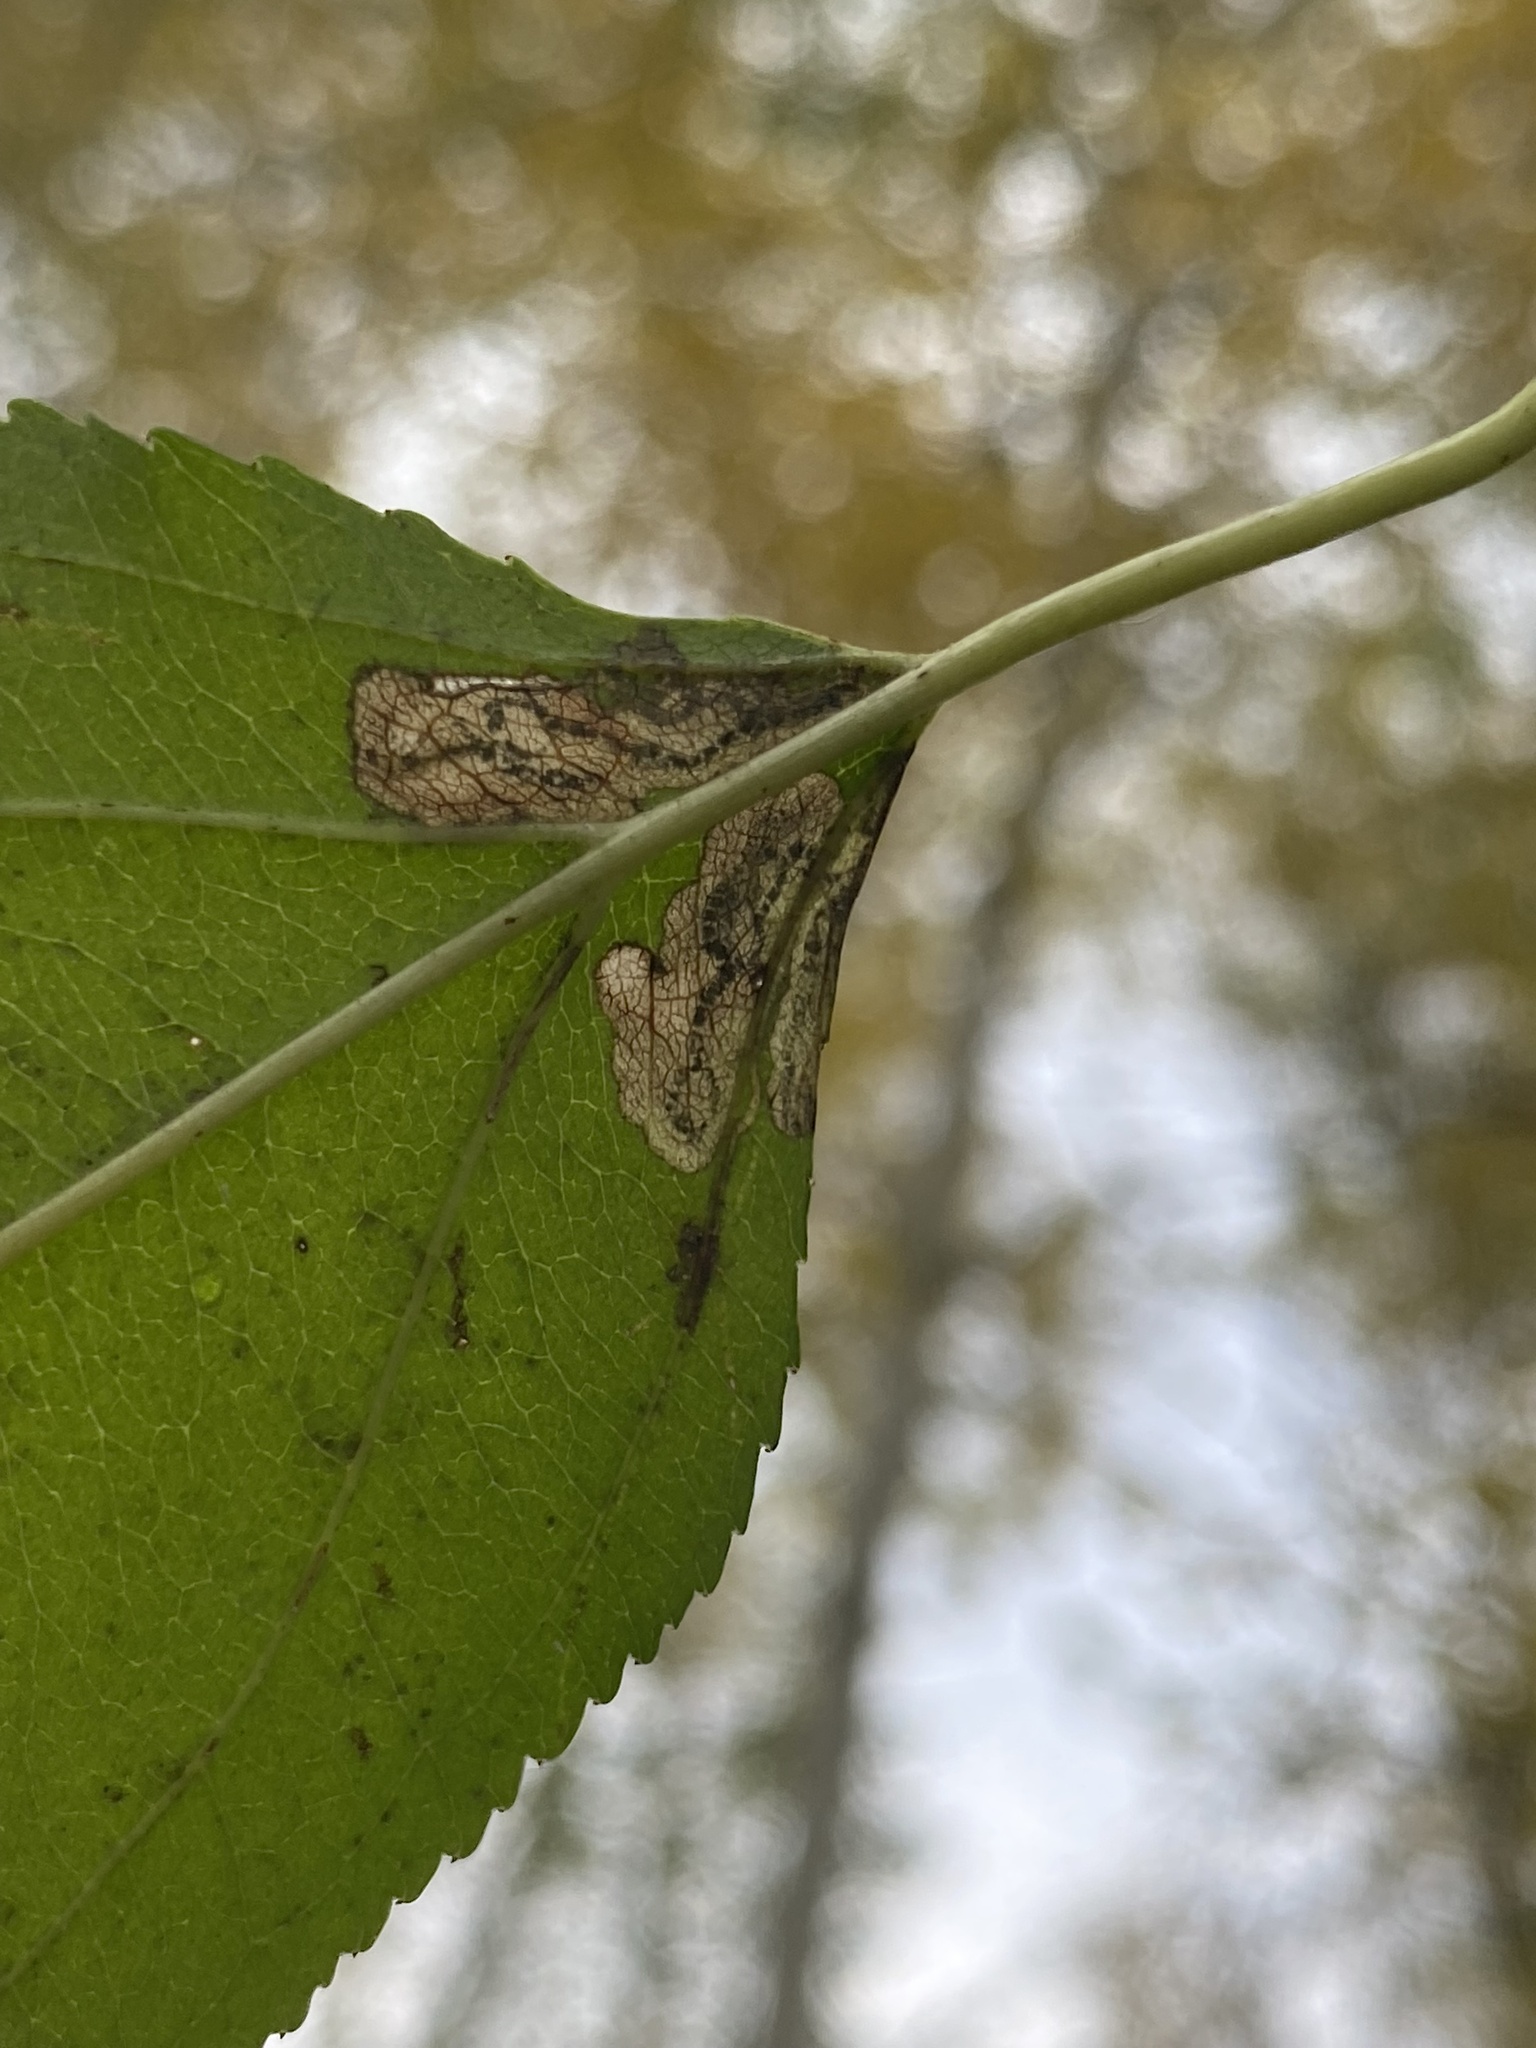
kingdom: Animalia
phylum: Arthropoda
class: Insecta
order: Lepidoptera
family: Nepticulidae
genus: Stigmella
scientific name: Stigmella rhamnicola
